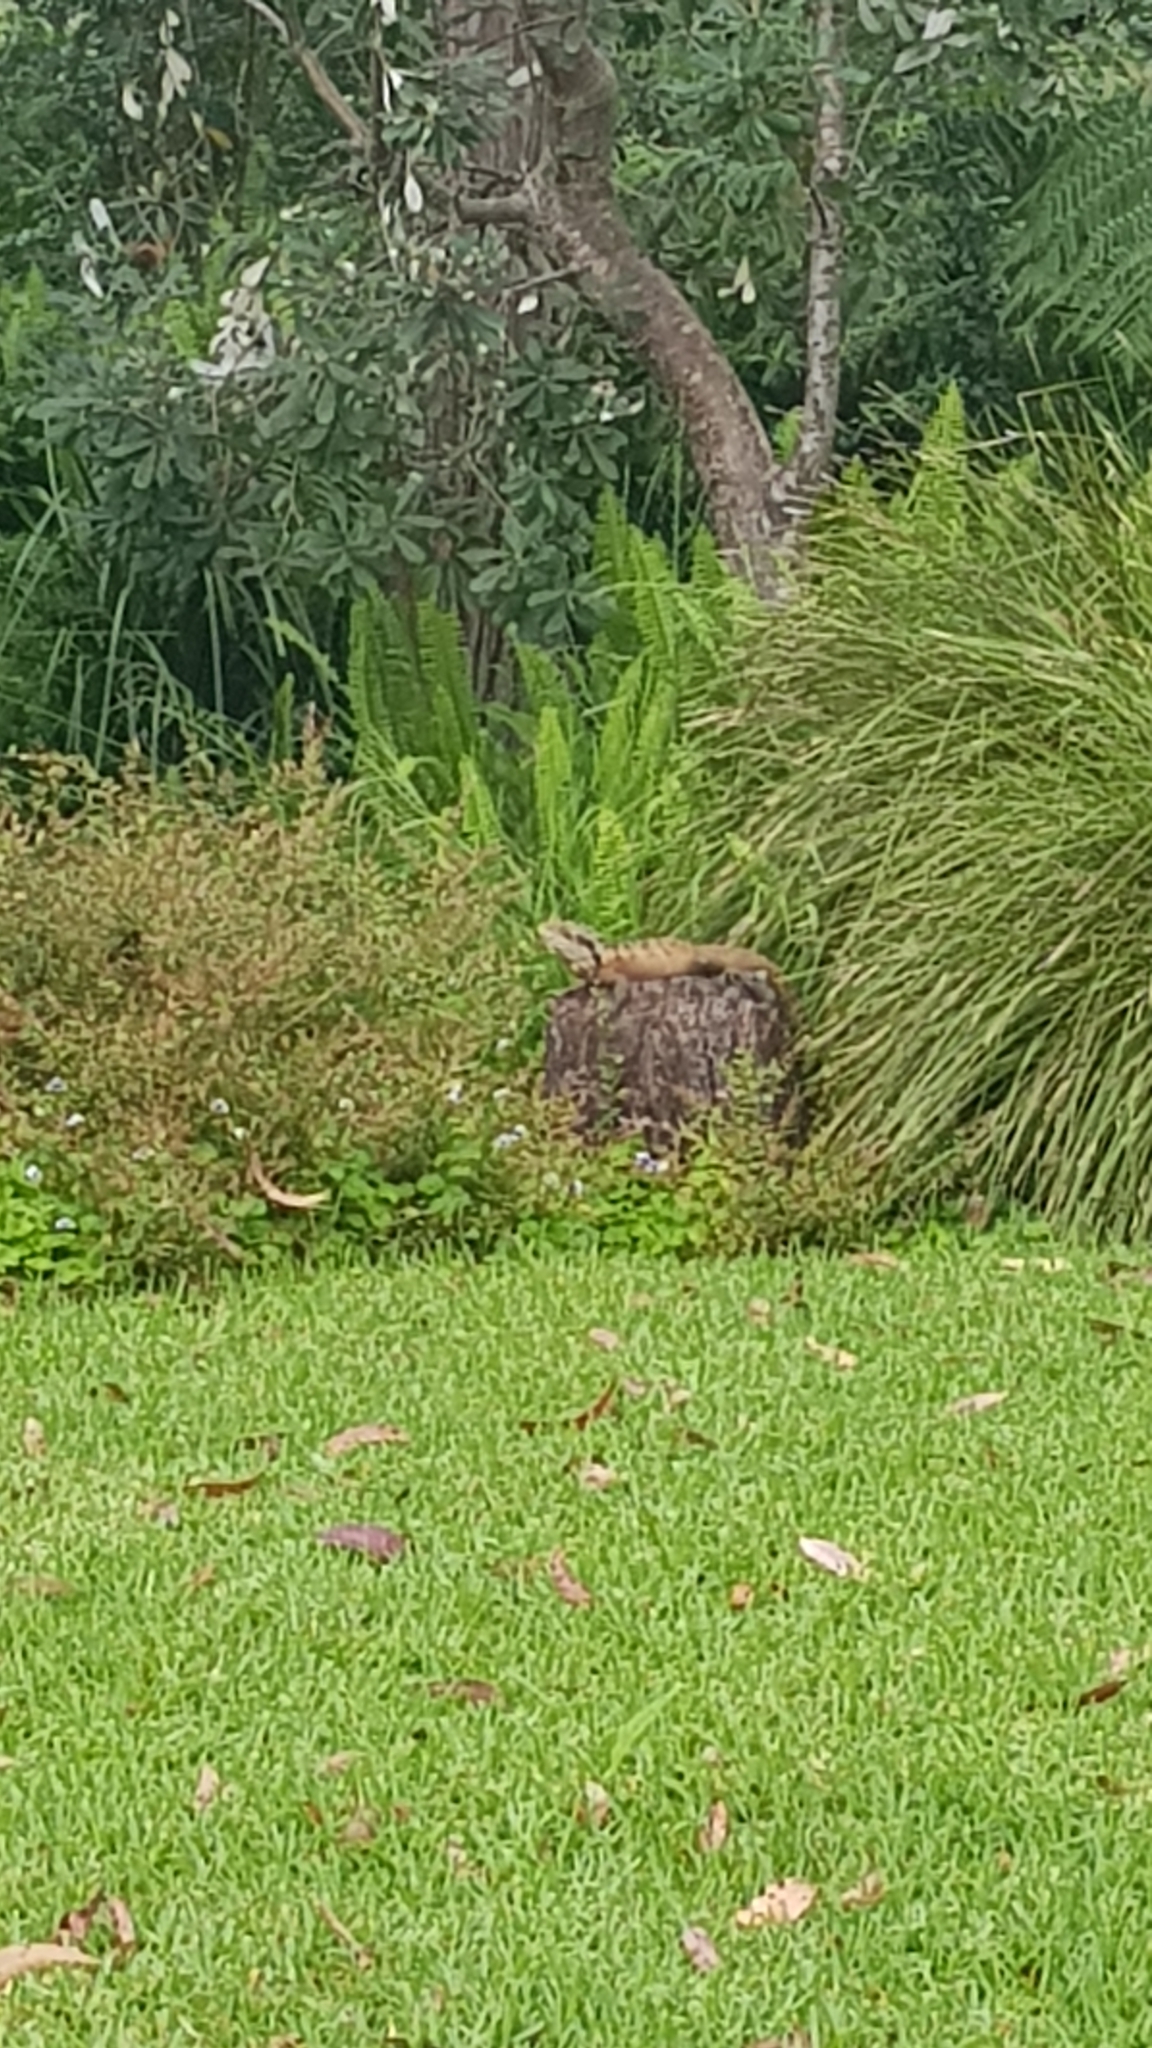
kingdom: Animalia
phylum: Chordata
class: Squamata
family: Agamidae
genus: Intellagama
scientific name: Intellagama lesueurii
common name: Eastern water dragon
